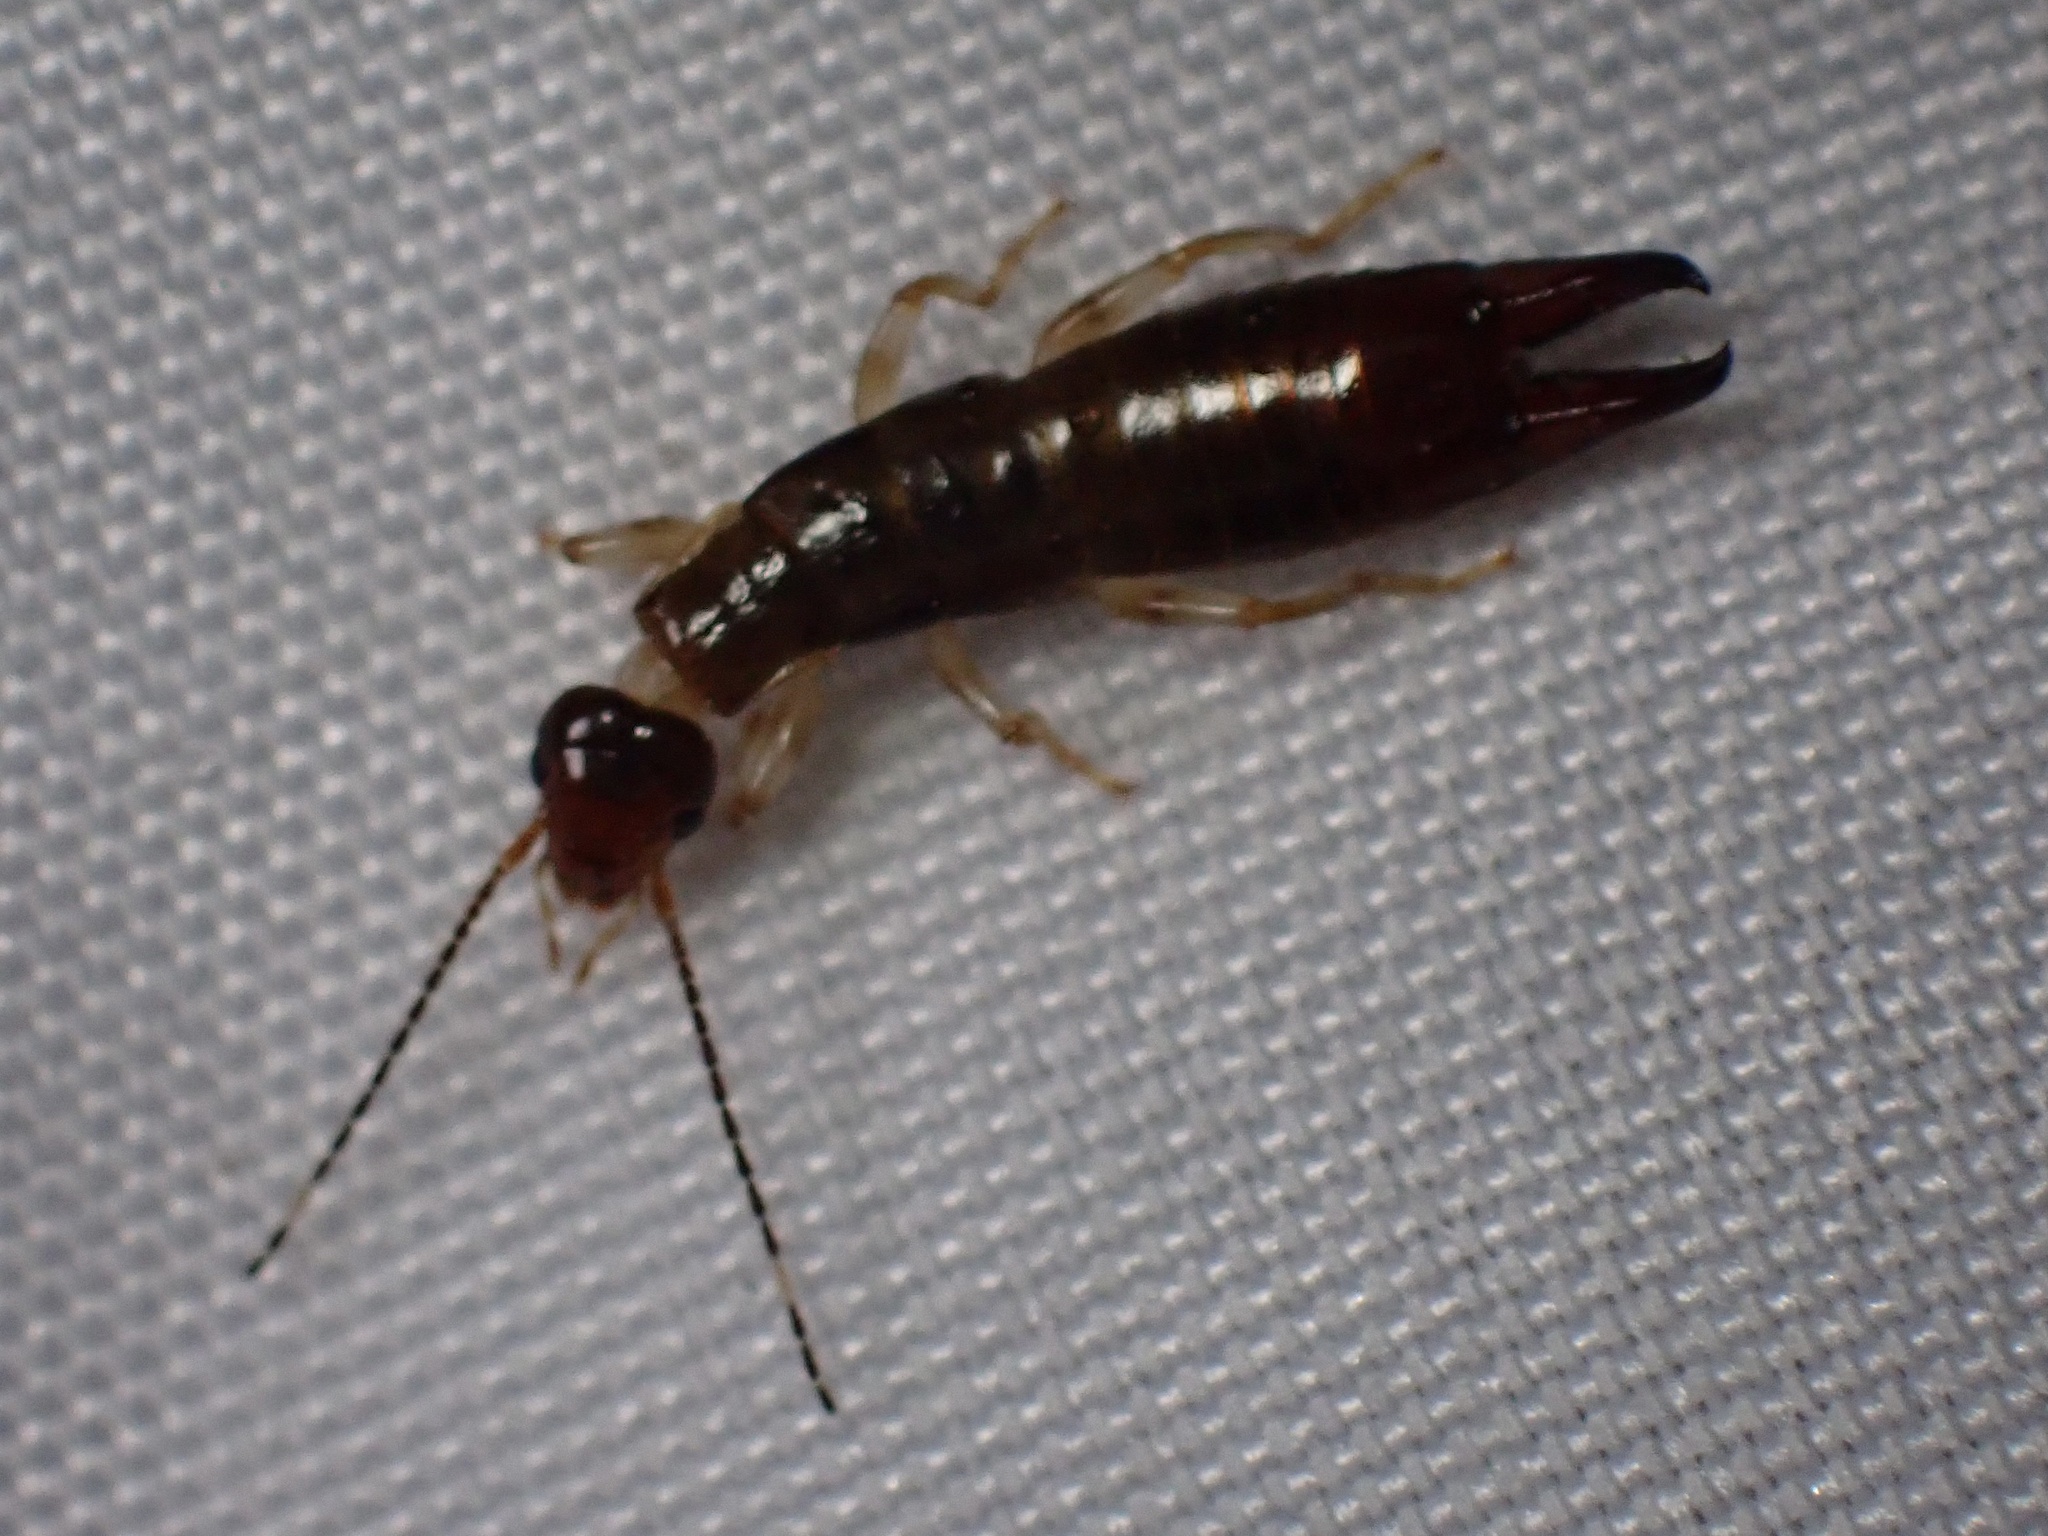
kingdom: Animalia
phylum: Arthropoda
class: Insecta
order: Dermaptera
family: Anisolabididae
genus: Euborellia
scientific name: Euborellia annulipes
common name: Ringlegged earwig
